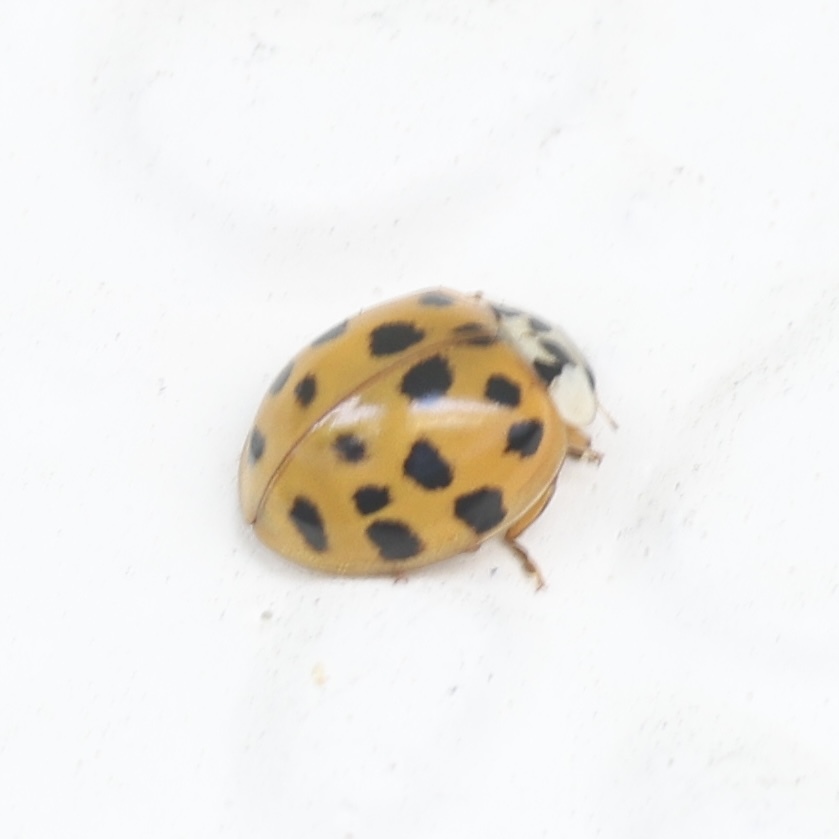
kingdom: Animalia
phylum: Arthropoda
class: Insecta
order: Coleoptera
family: Coccinellidae
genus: Harmonia
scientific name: Harmonia axyridis
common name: Harlequin ladybird
